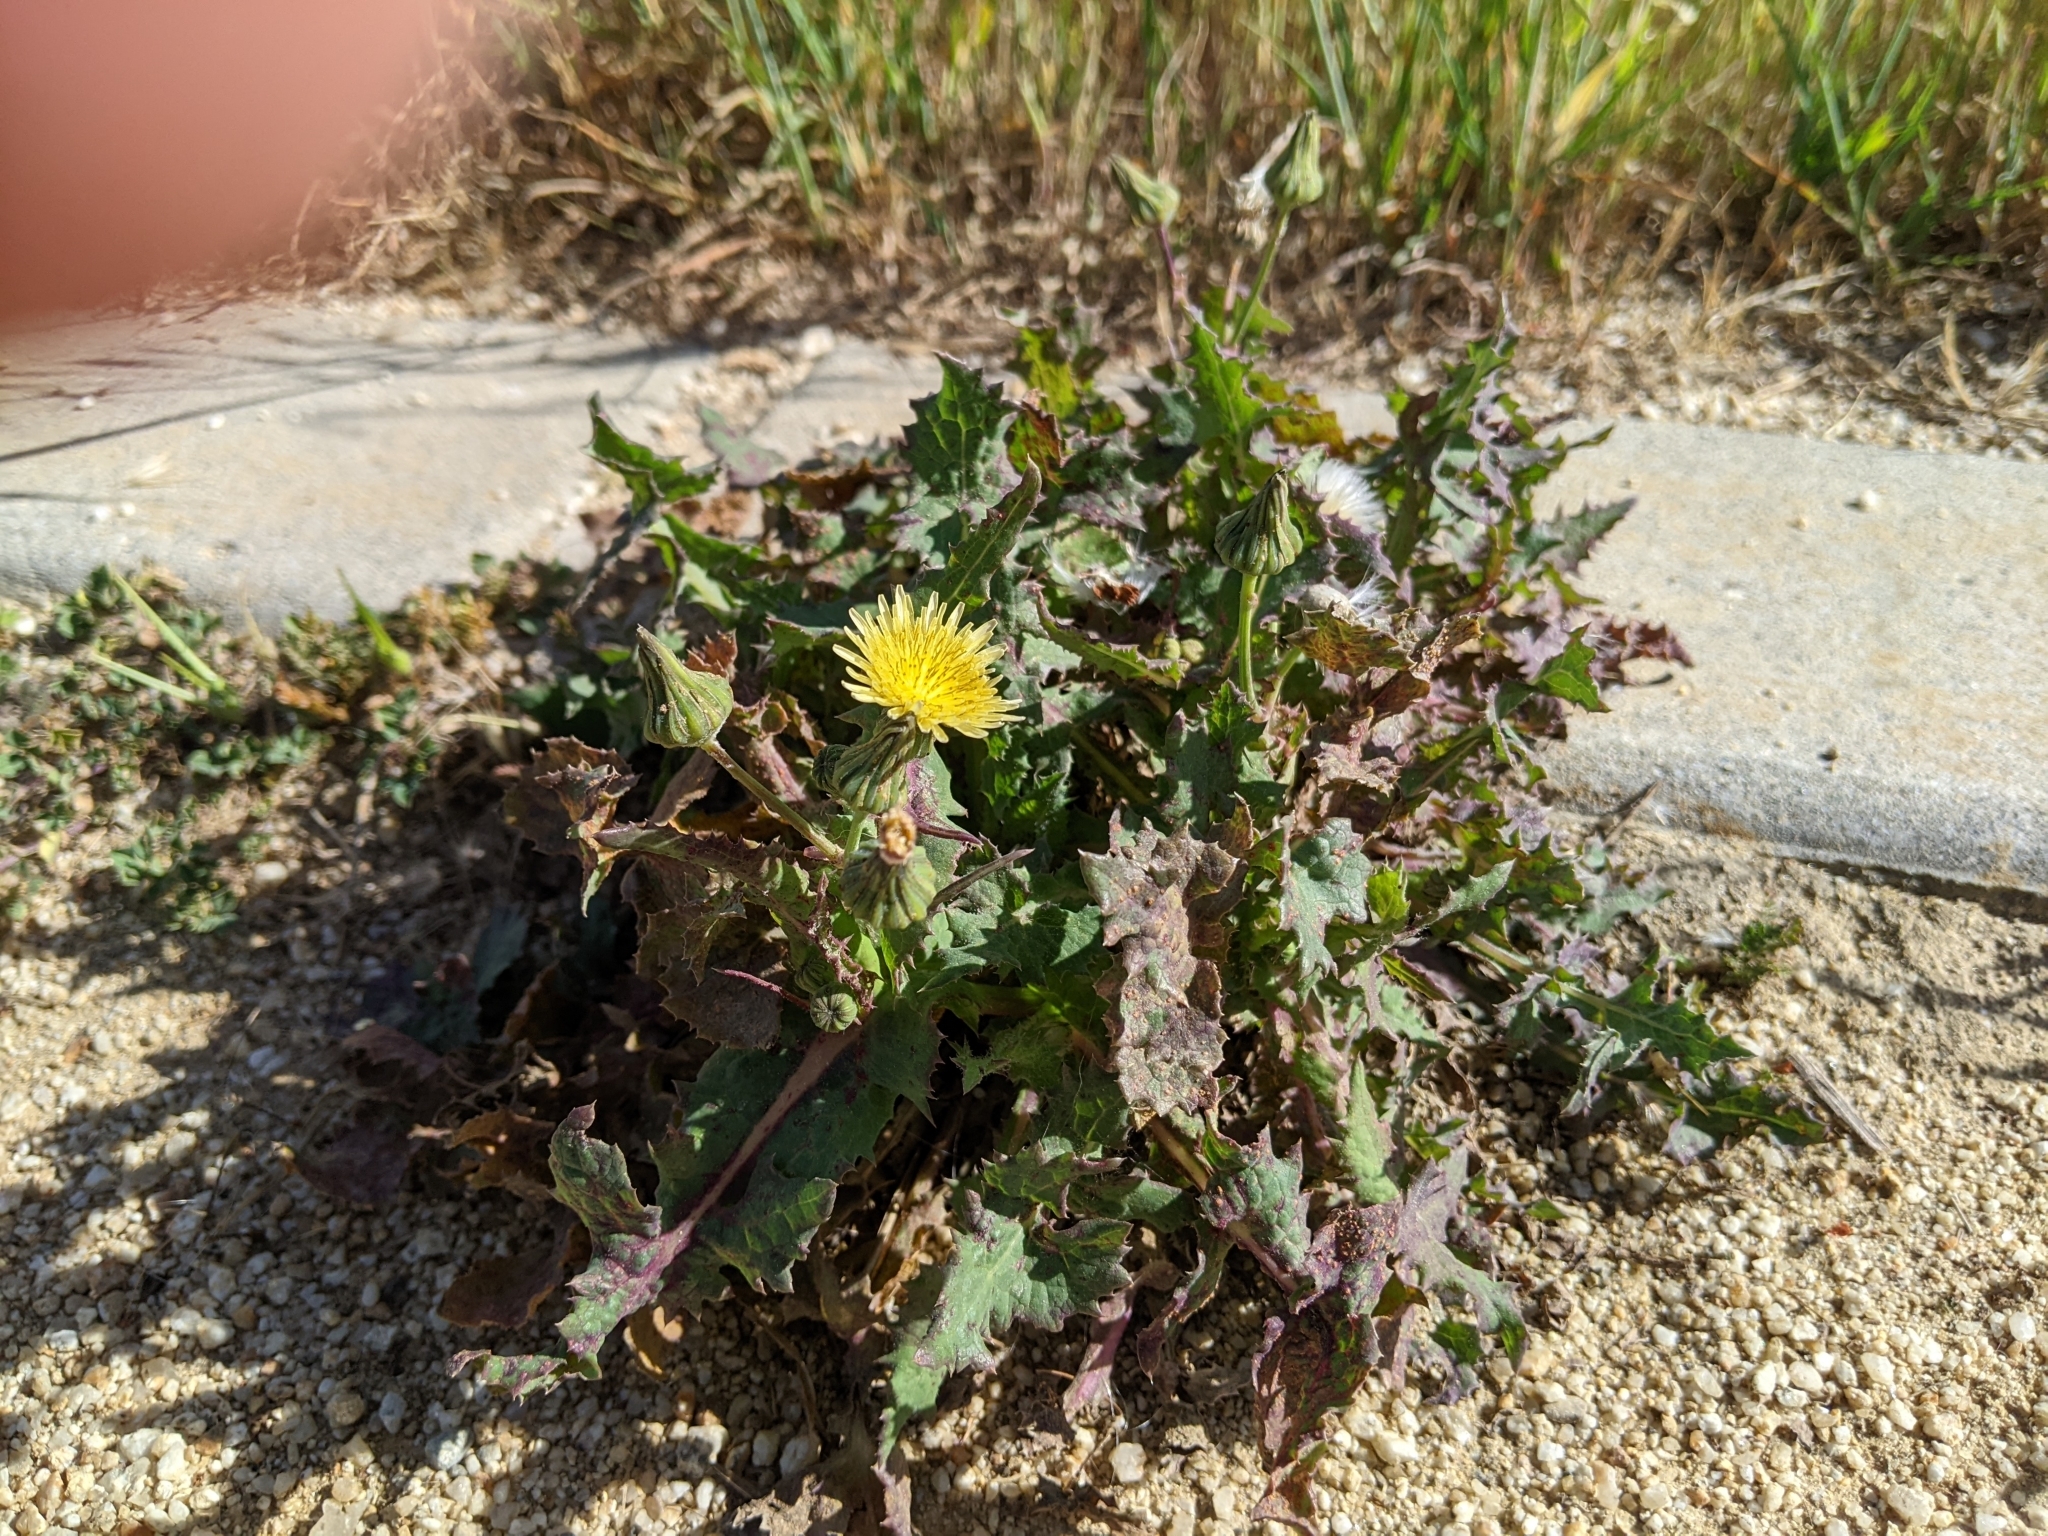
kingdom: Plantae
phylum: Tracheophyta
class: Magnoliopsida
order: Asterales
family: Asteraceae
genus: Sonchus
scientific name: Sonchus oleraceus
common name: Common sowthistle
